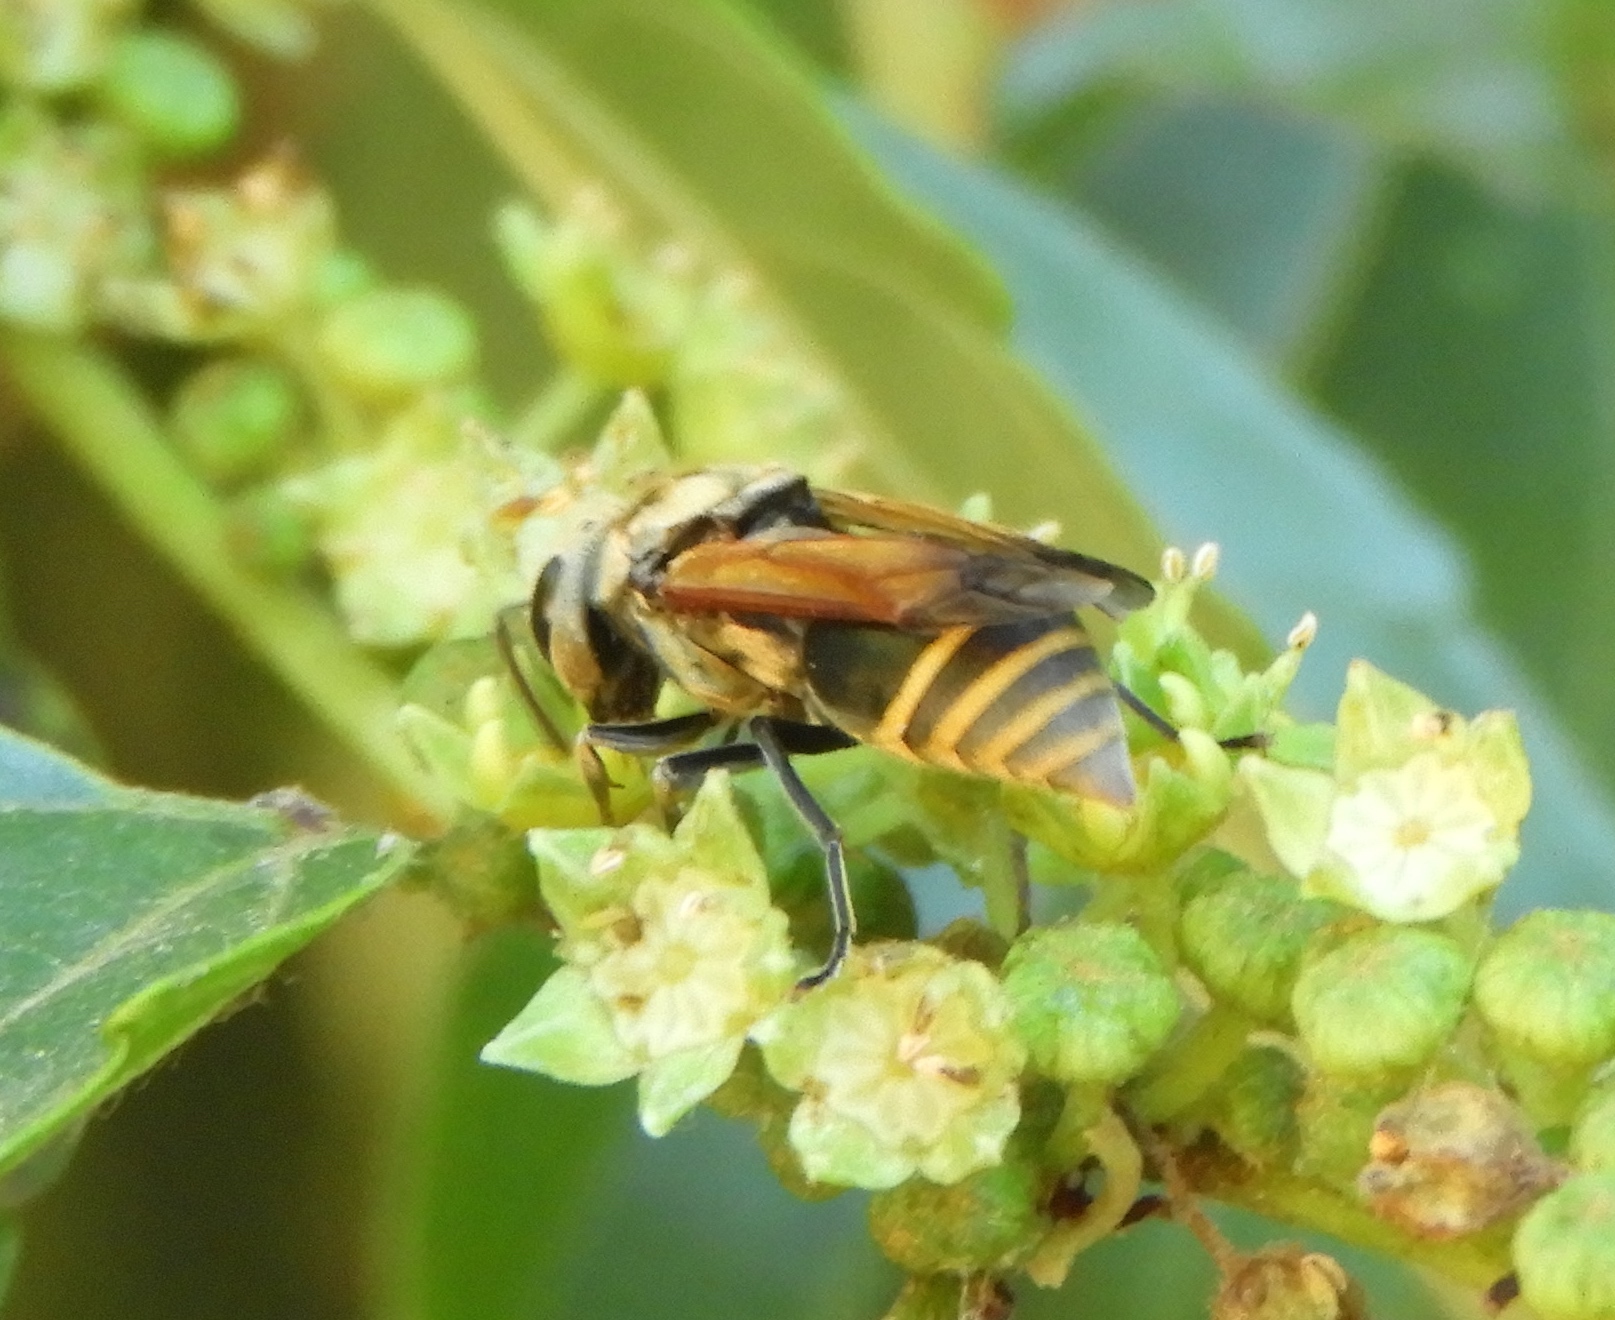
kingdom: Animalia
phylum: Arthropoda
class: Insecta
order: Hymenoptera
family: Vespidae
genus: Brachygastra
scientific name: Brachygastra mellifica
